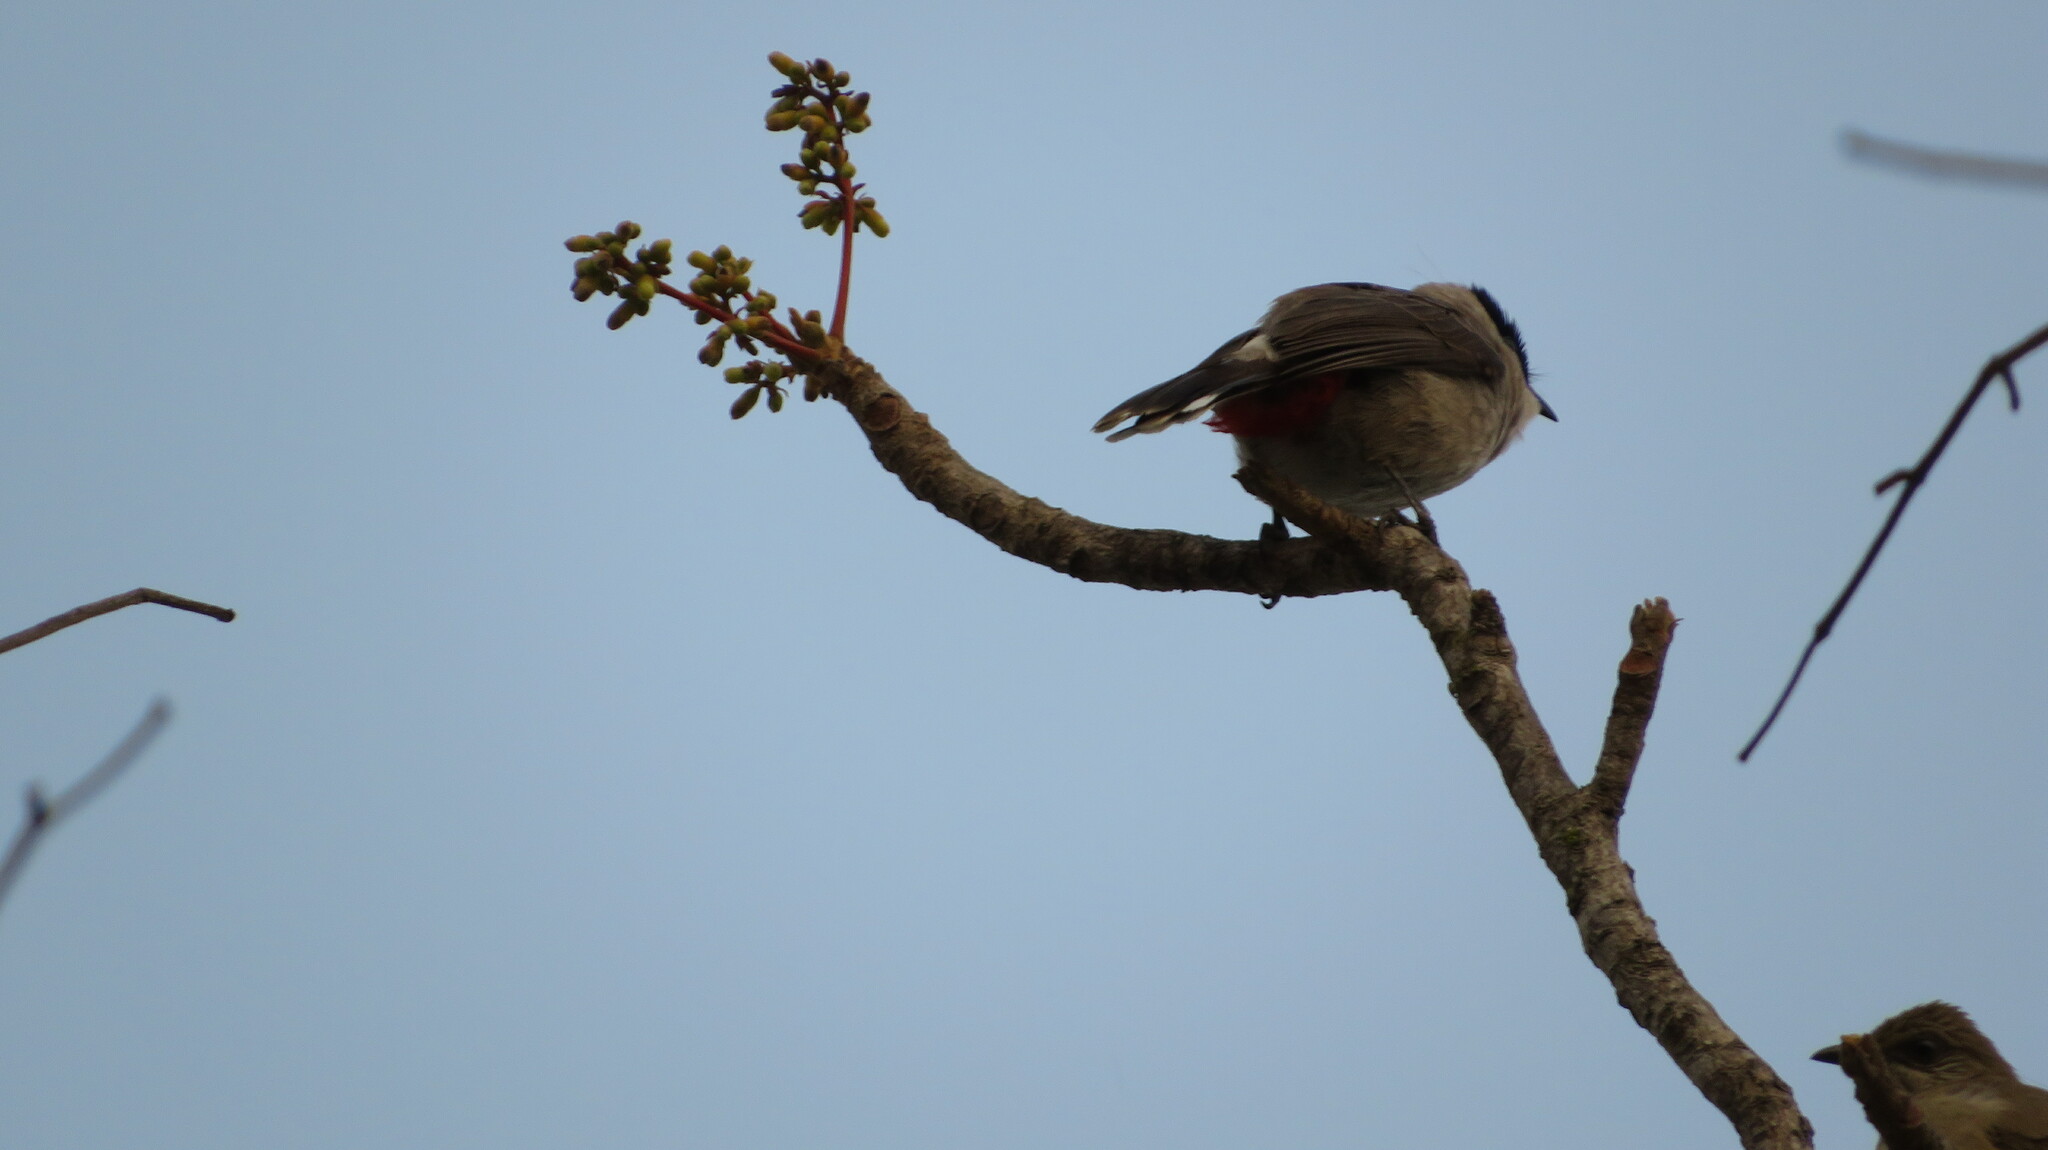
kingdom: Animalia
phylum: Chordata
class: Aves
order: Passeriformes
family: Pycnonotidae
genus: Pycnonotus
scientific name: Pycnonotus aurigaster
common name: Sooty-headed bulbul
